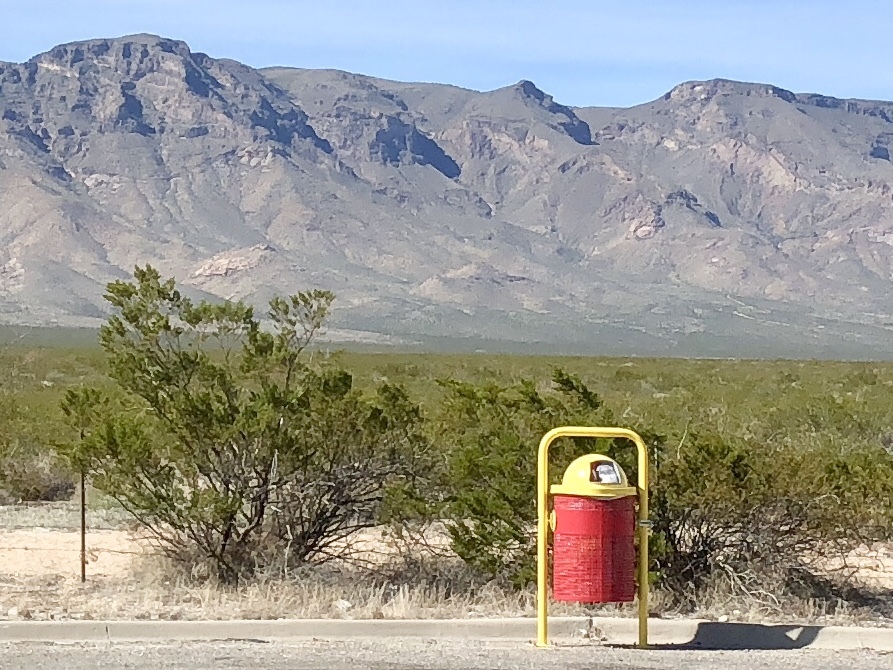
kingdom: Plantae
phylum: Tracheophyta
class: Magnoliopsida
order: Zygophyllales
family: Zygophyllaceae
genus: Larrea
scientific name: Larrea tridentata
